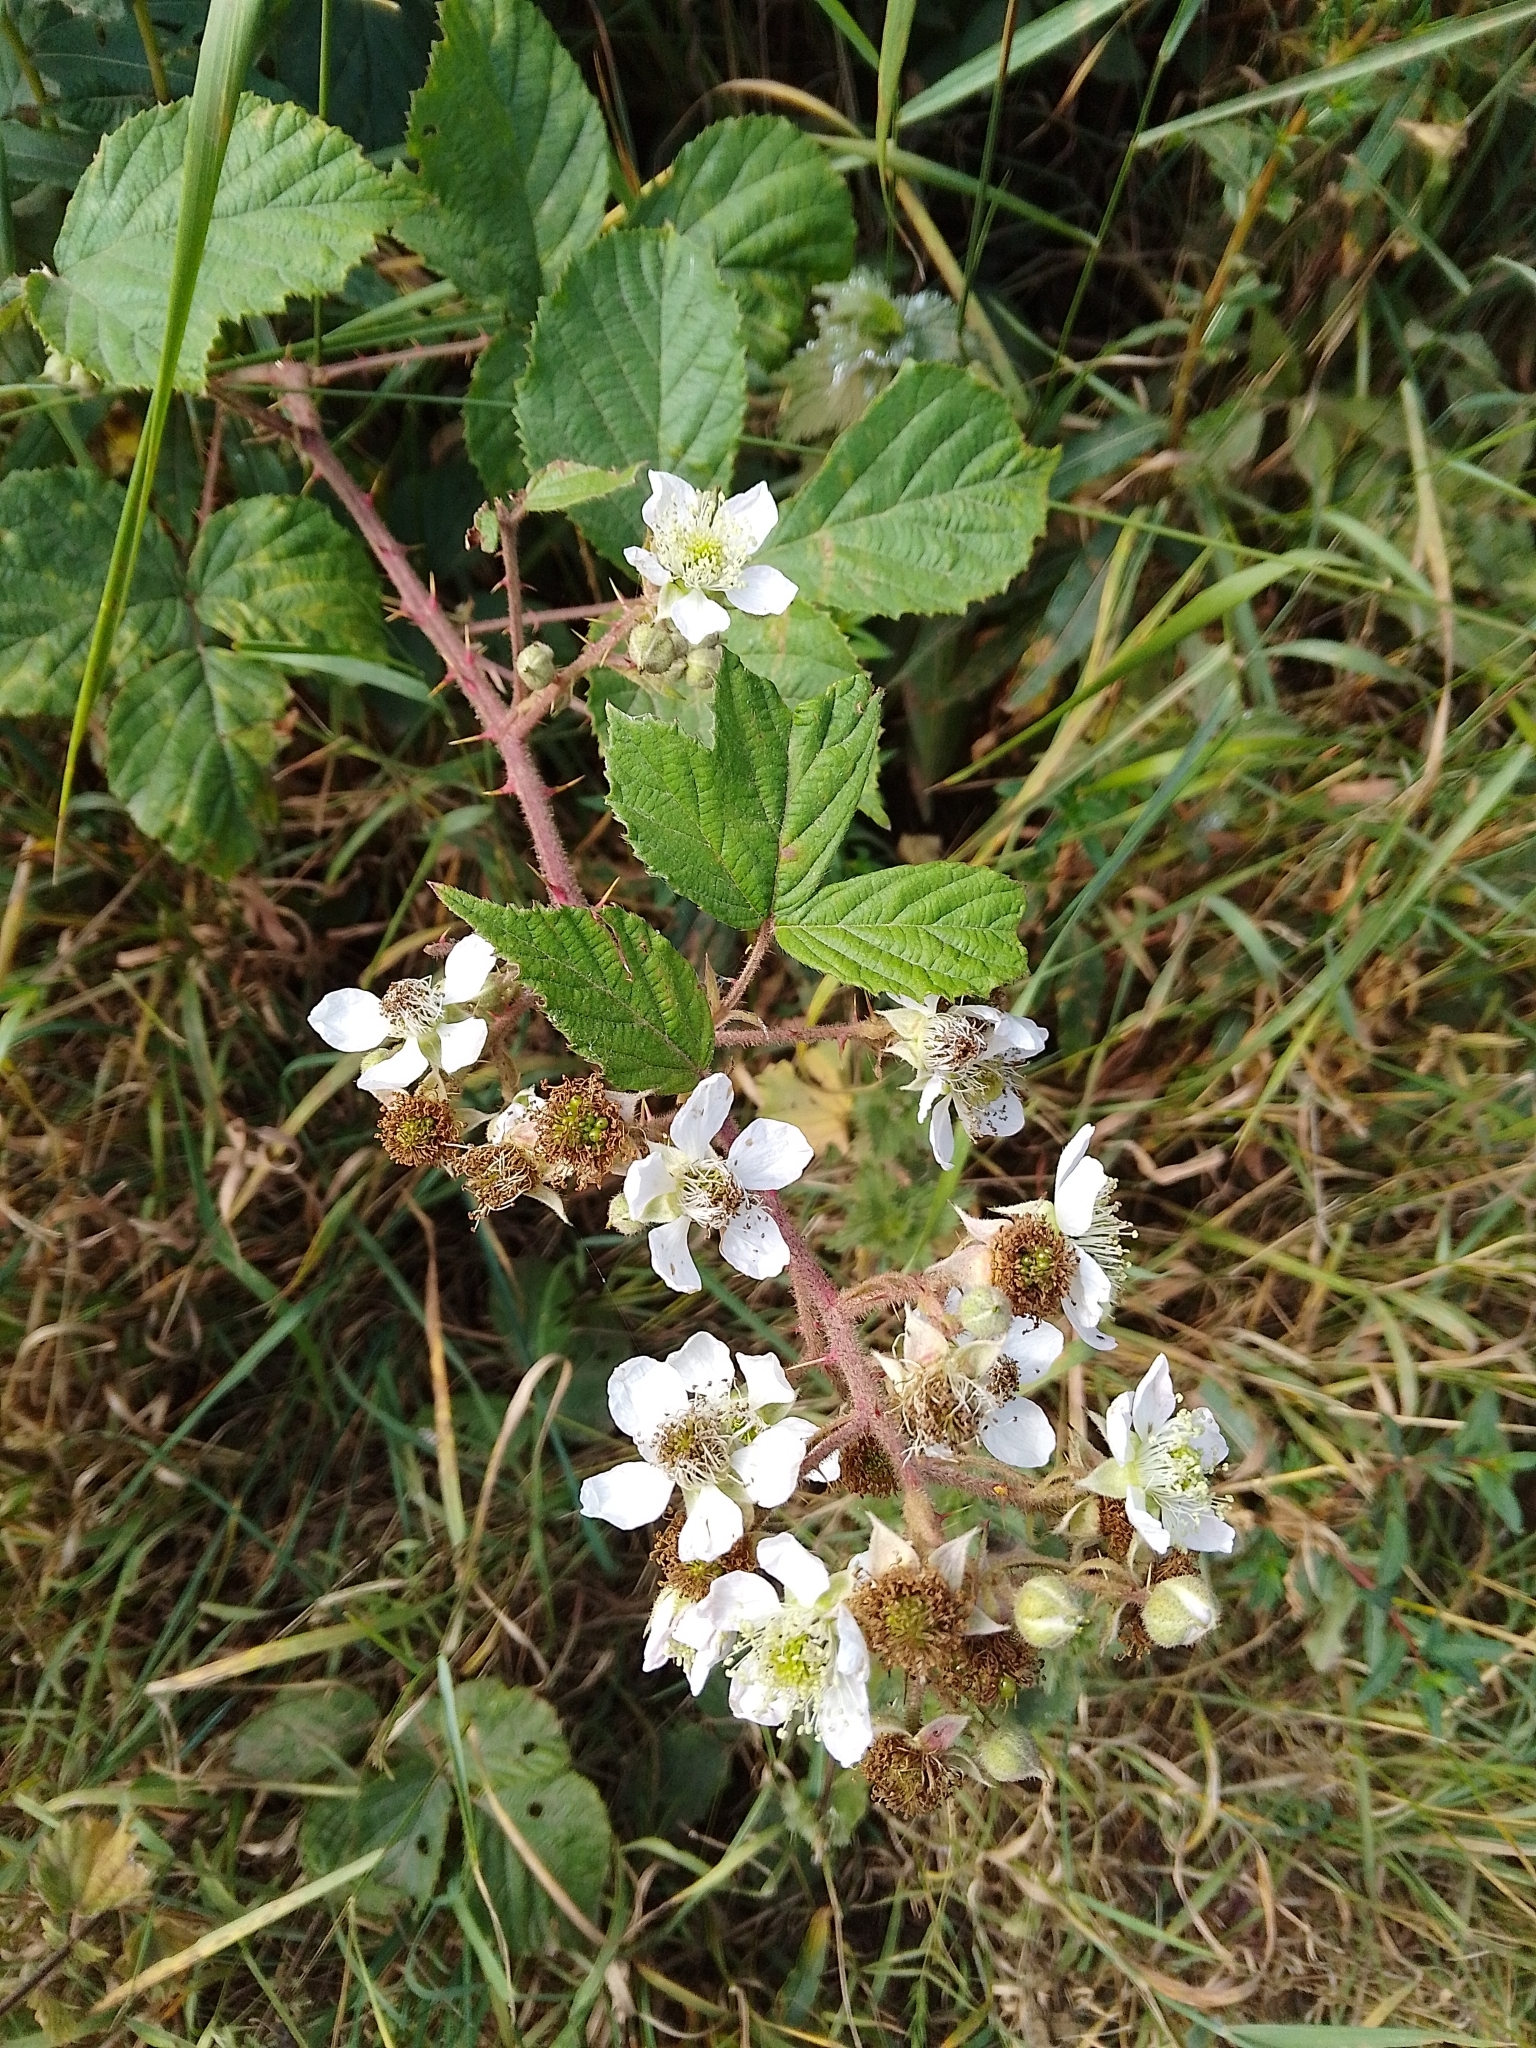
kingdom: Plantae
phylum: Tracheophyta
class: Magnoliopsida
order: Rosales
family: Rosaceae
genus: Rubus
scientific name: Rubus
